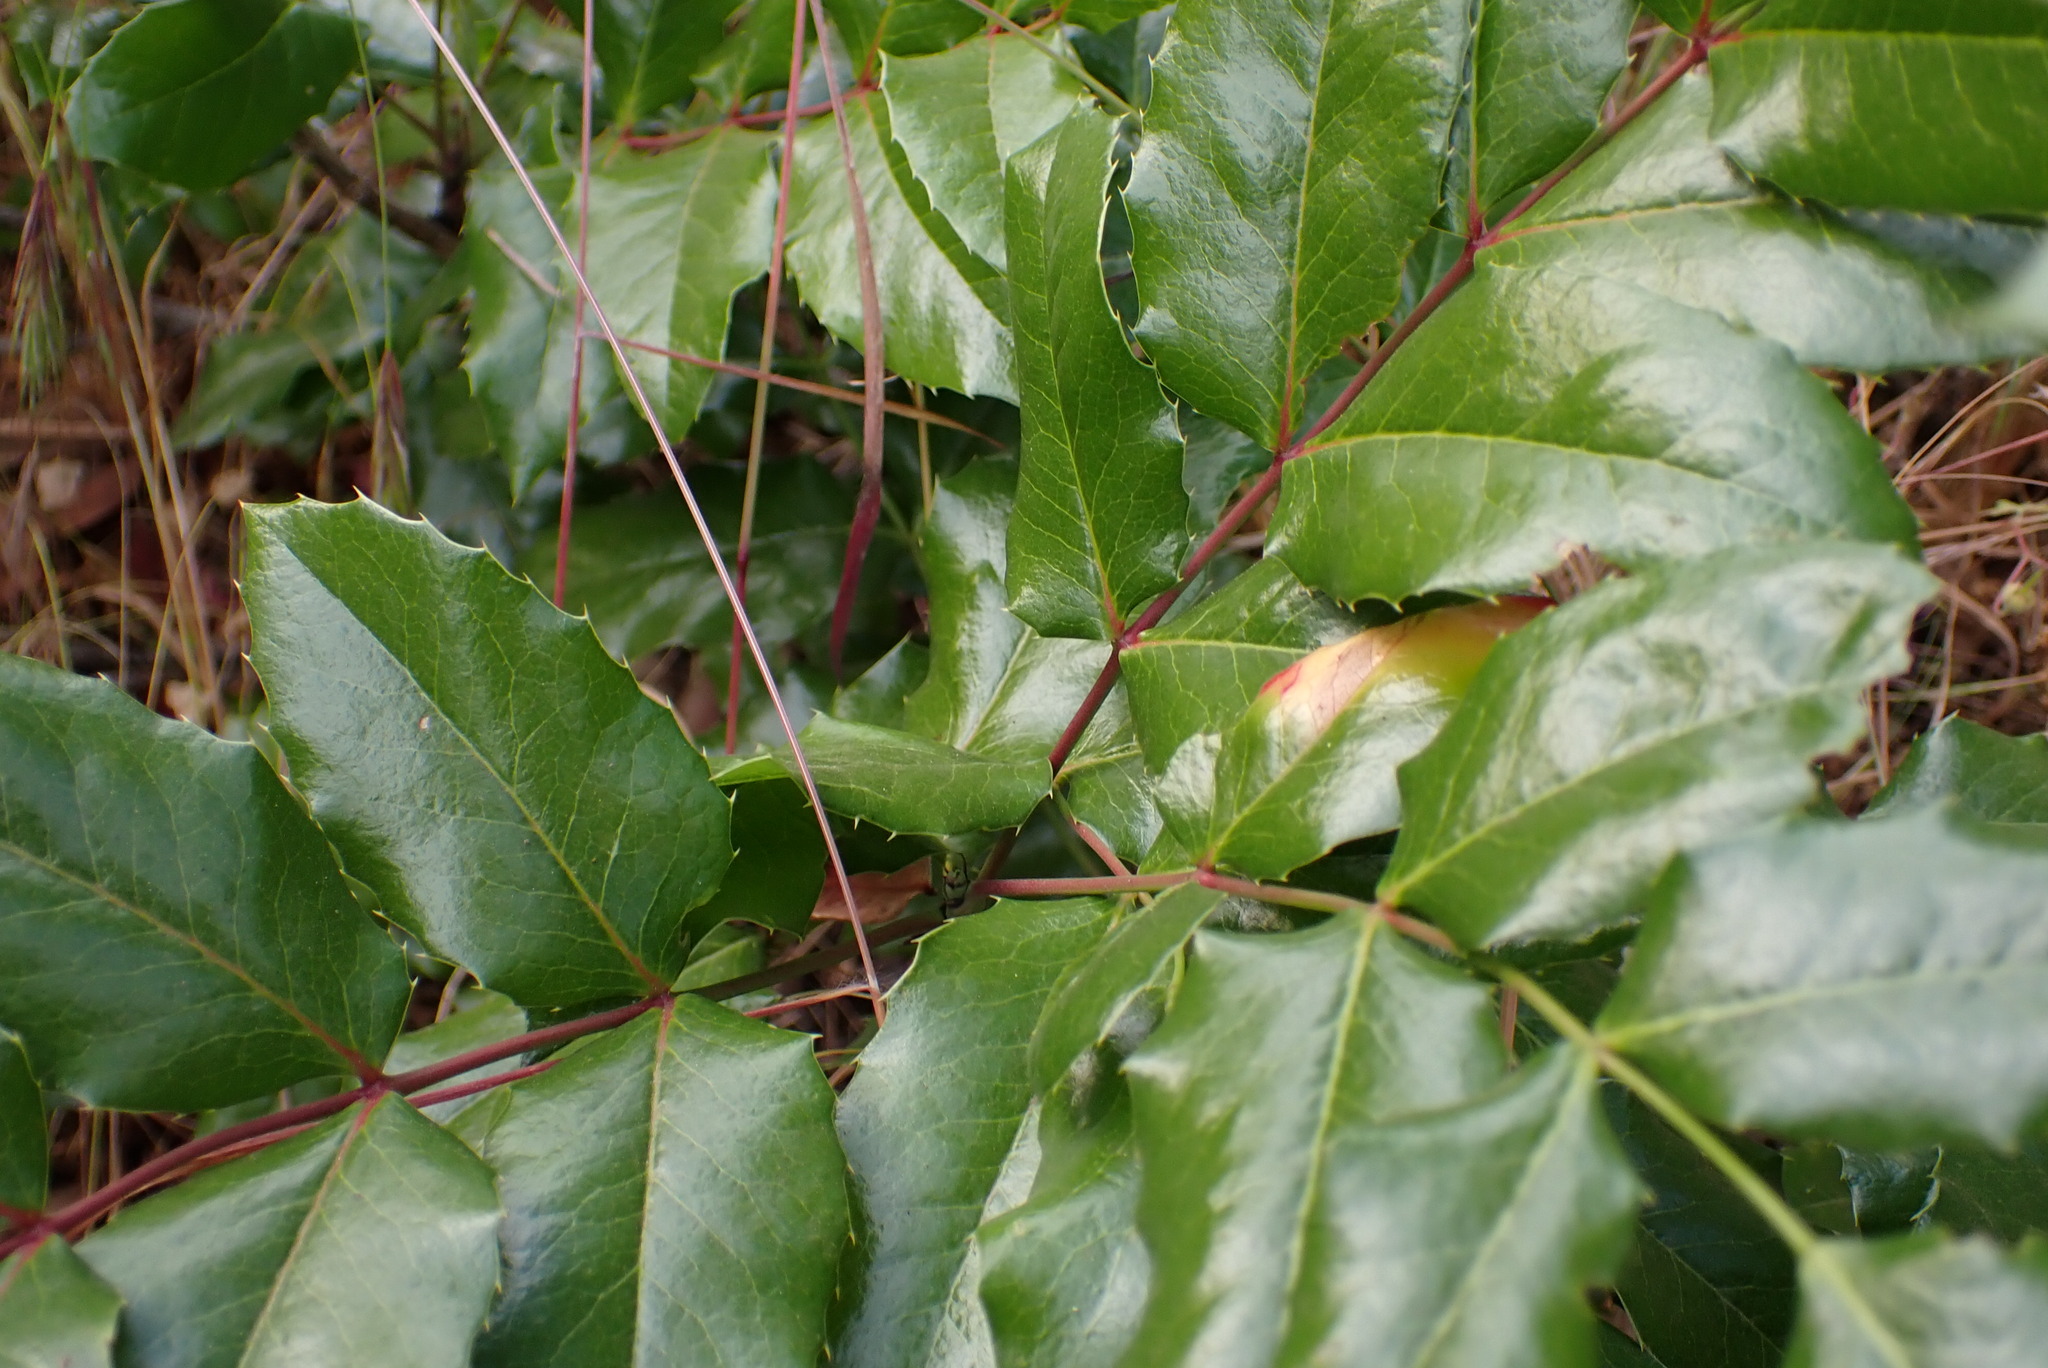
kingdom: Plantae
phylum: Tracheophyta
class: Magnoliopsida
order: Ranunculales
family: Berberidaceae
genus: Mahonia
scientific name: Mahonia aquifolium
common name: Oregon-grape
